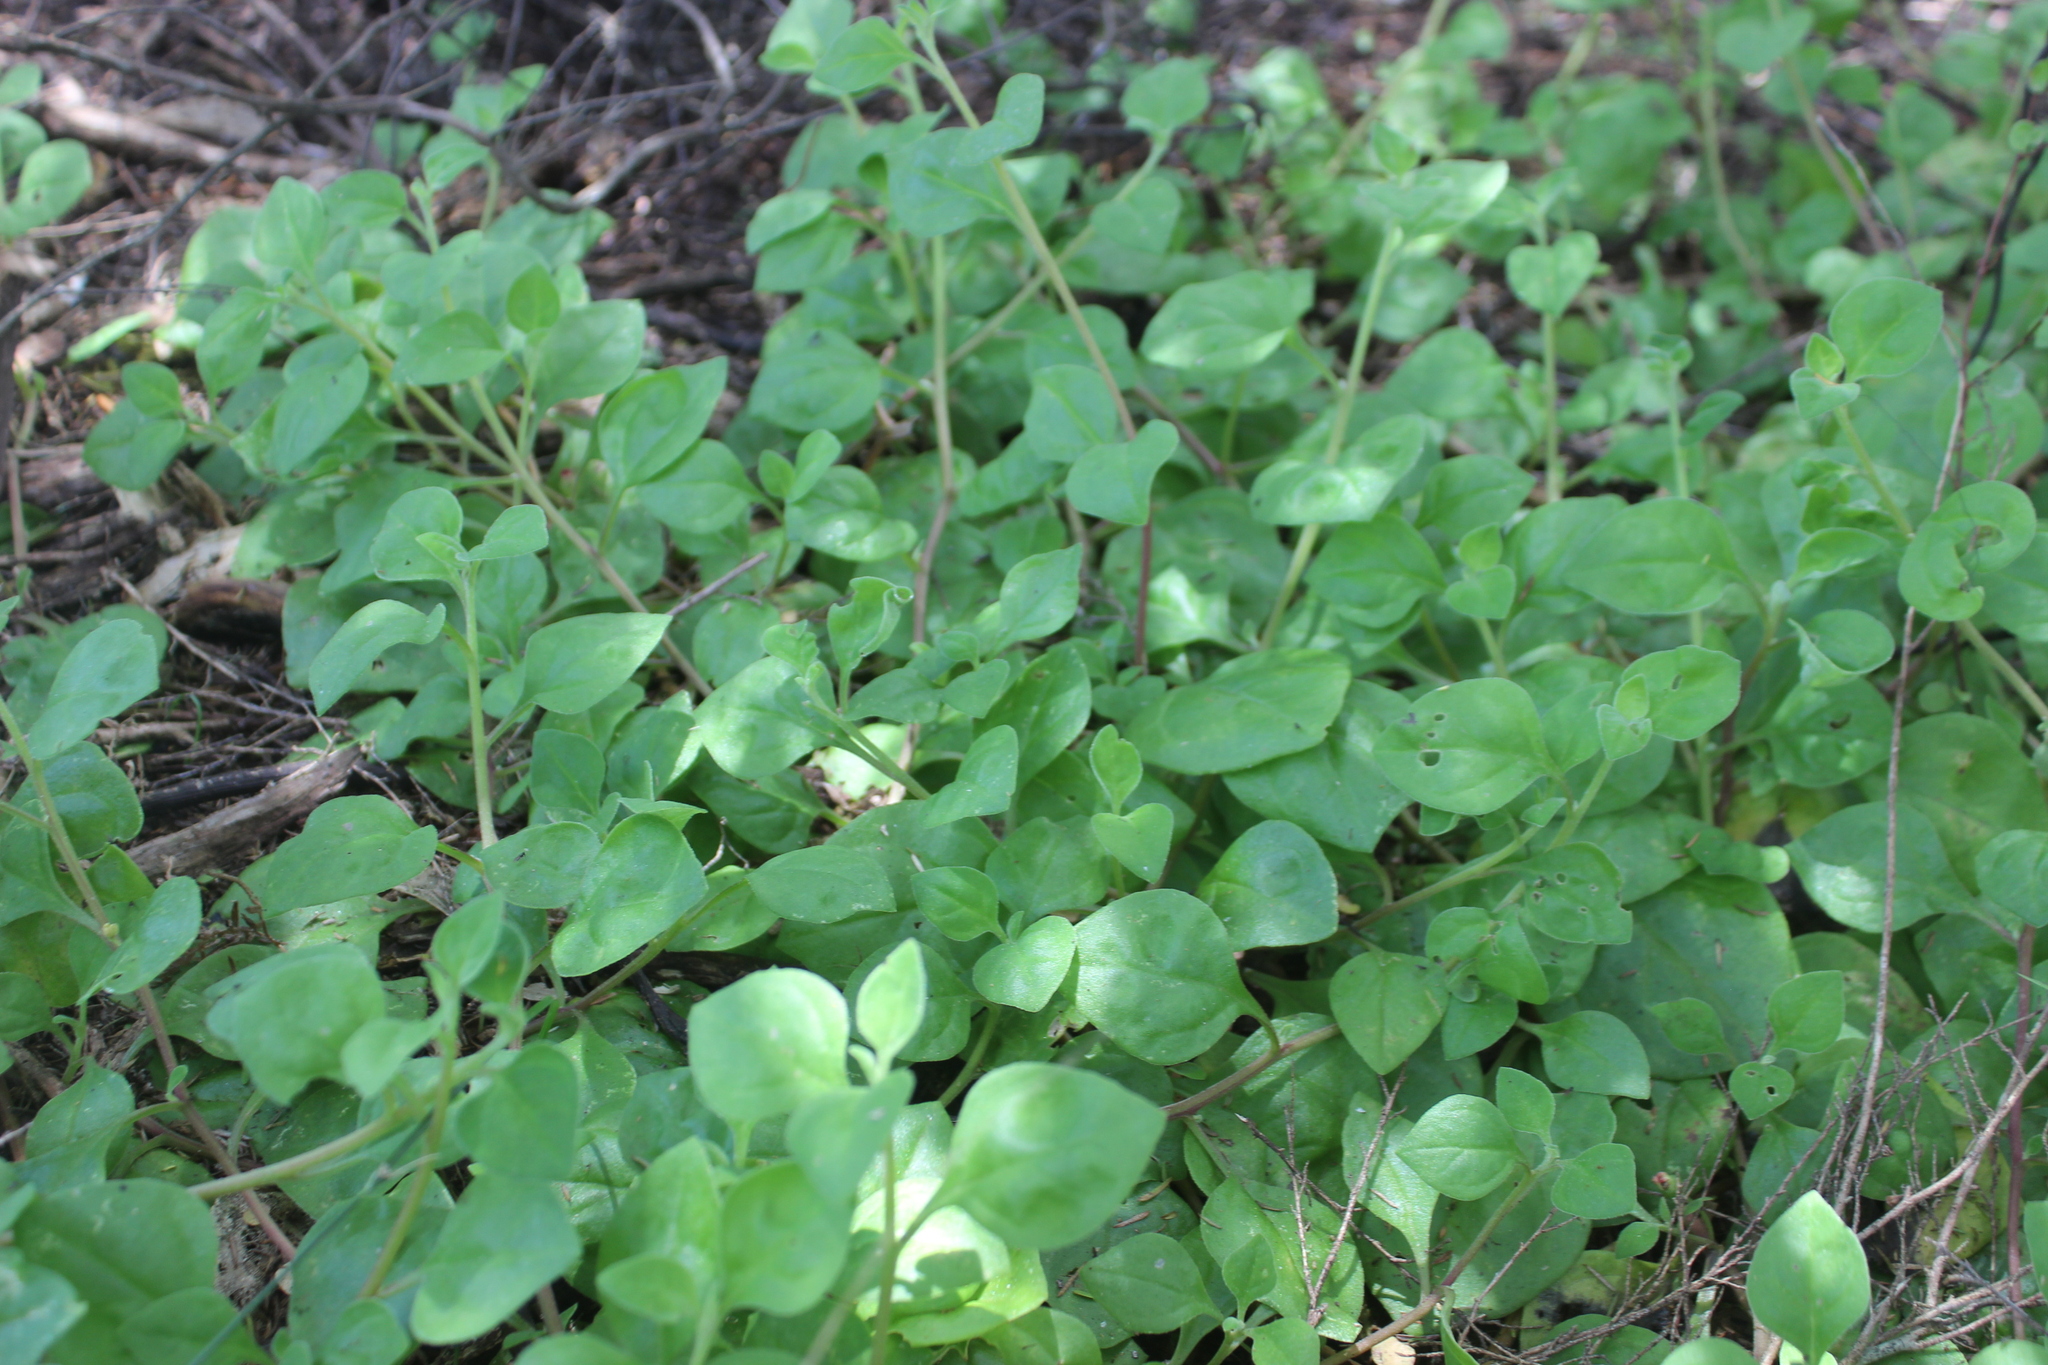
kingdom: Plantae
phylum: Tracheophyta
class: Magnoliopsida
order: Caryophyllales
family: Aizoaceae
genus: Tetragonia
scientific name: Tetragonia implexicoma
